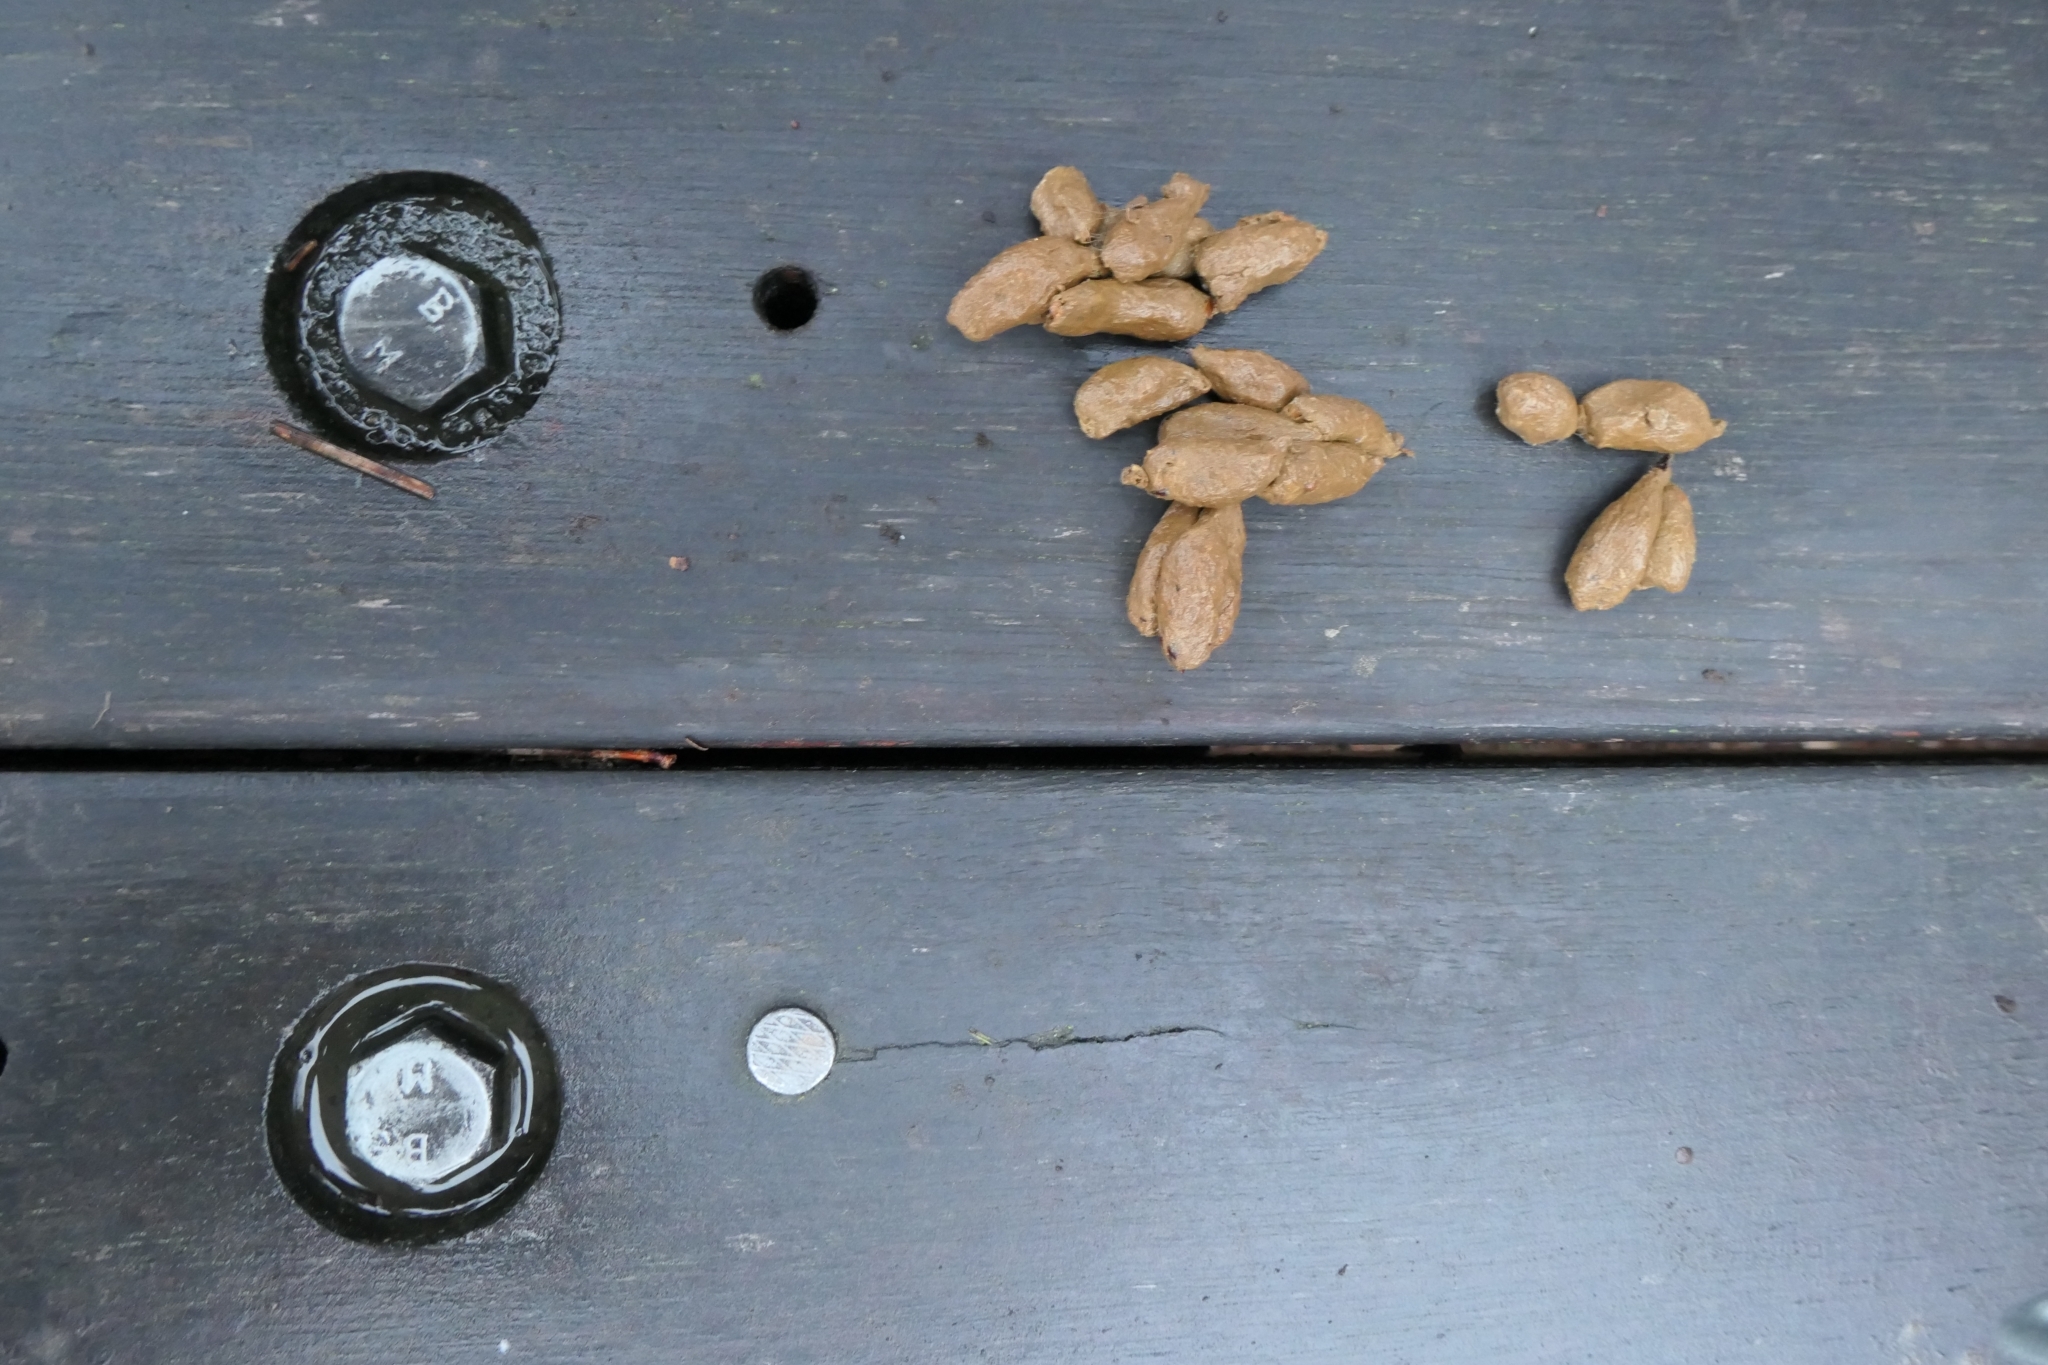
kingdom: Animalia
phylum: Chordata
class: Mammalia
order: Diprotodontia
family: Phalangeridae
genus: Trichosurus
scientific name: Trichosurus vulpecula
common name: Common brushtail
